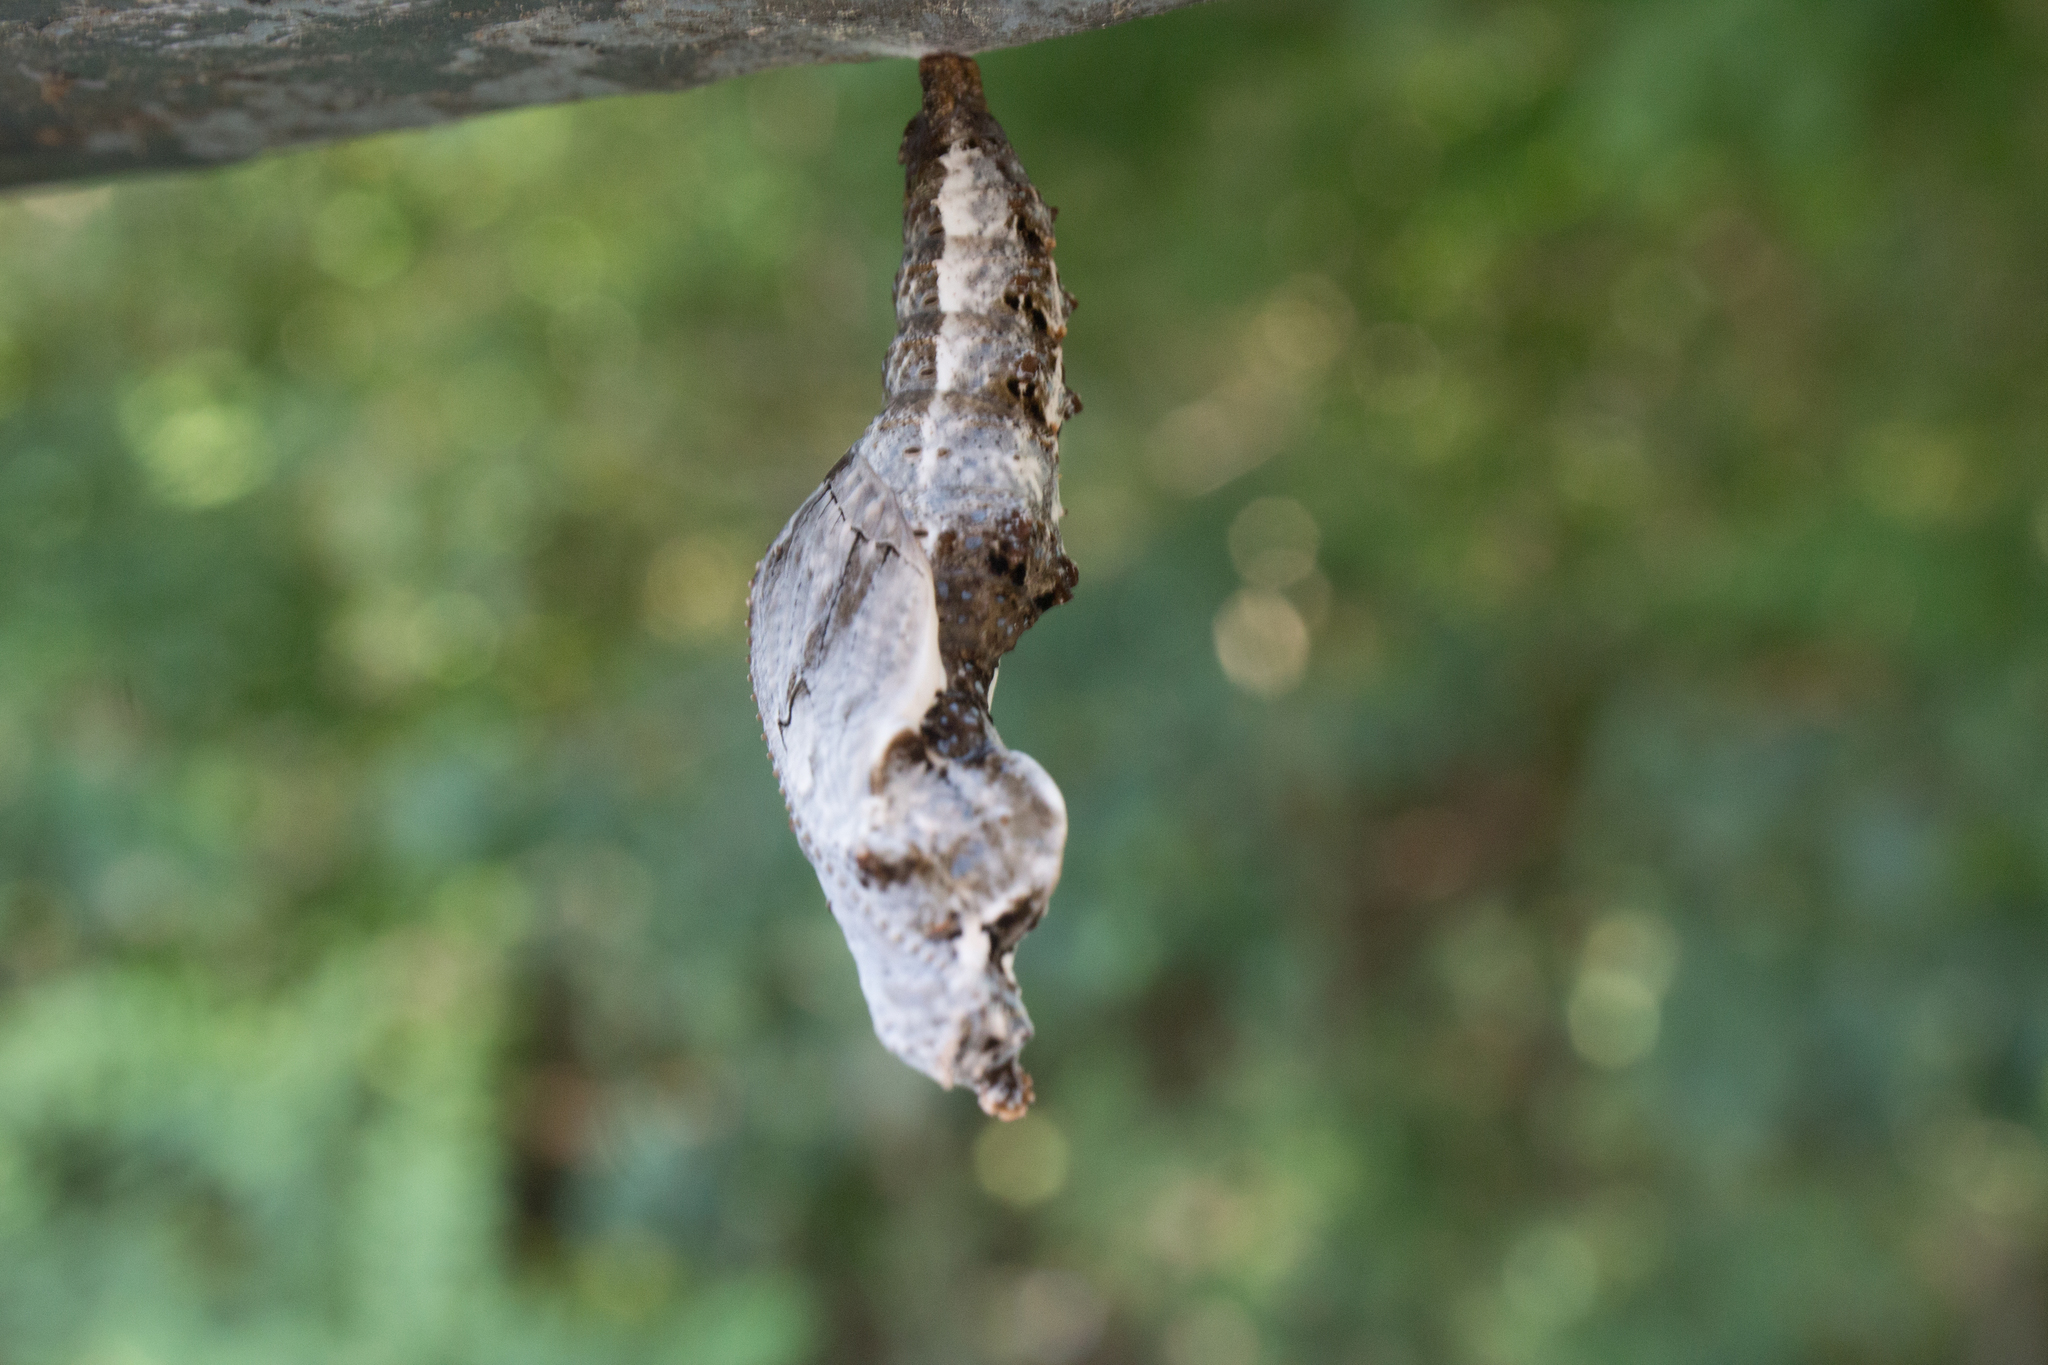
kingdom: Animalia
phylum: Arthropoda
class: Insecta
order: Lepidoptera
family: Nymphalidae
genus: Dione
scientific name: Dione vanillae
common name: Gulf fritillary
